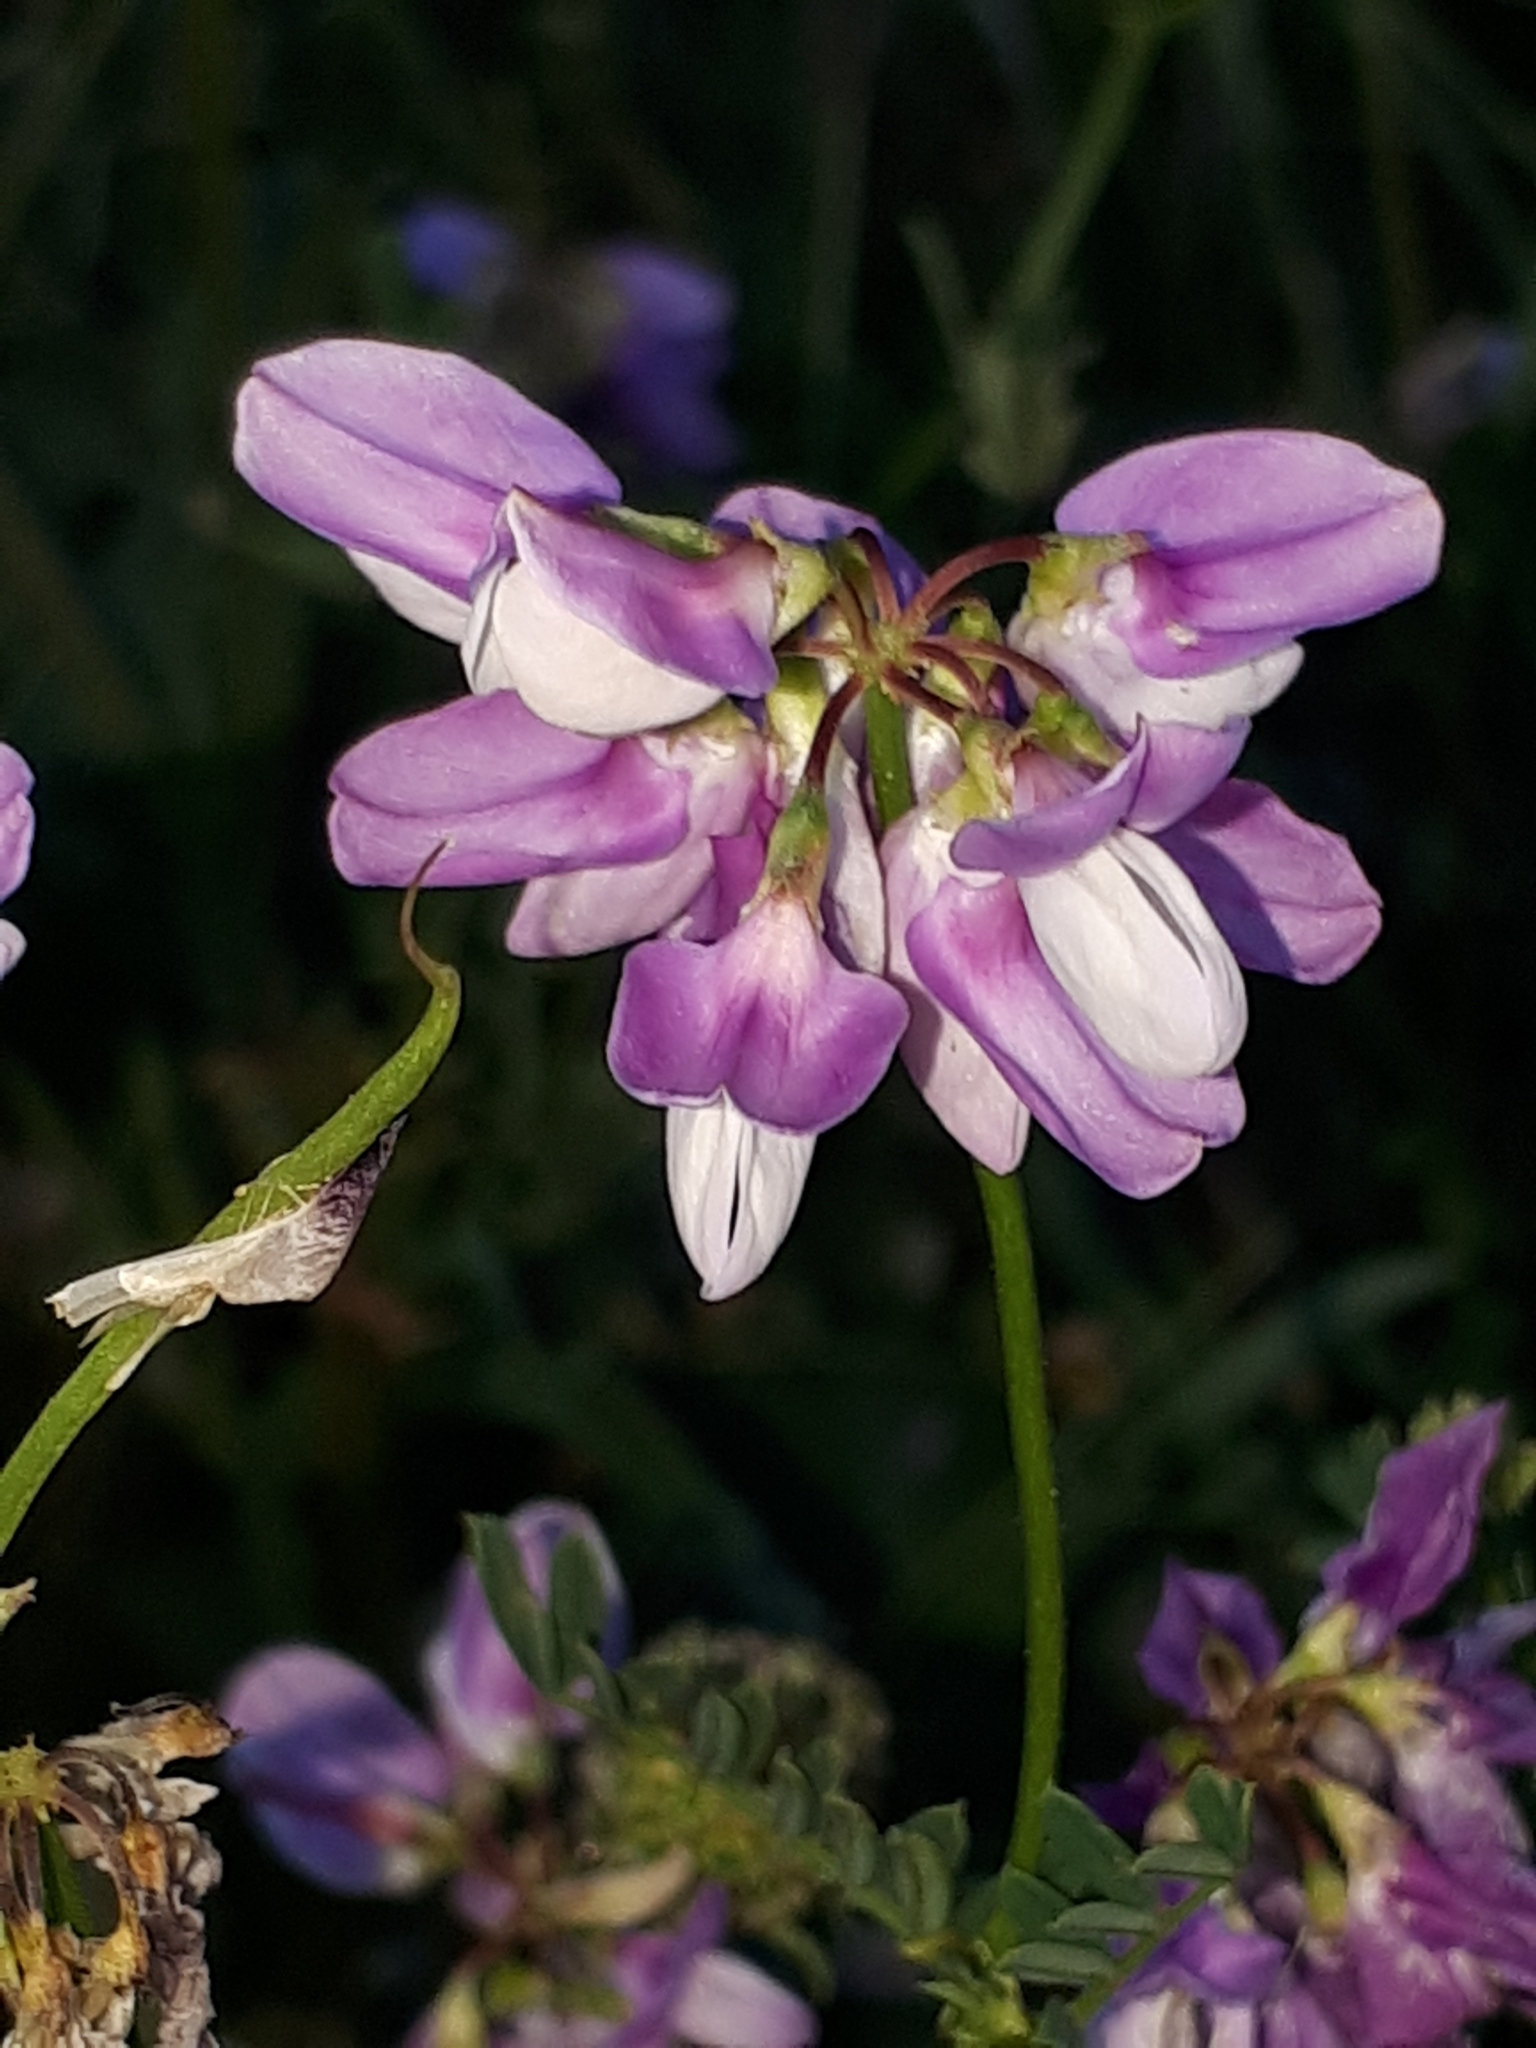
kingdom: Plantae
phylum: Tracheophyta
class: Magnoliopsida
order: Fabales
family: Fabaceae
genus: Coronilla
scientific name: Coronilla varia
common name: Crownvetch
